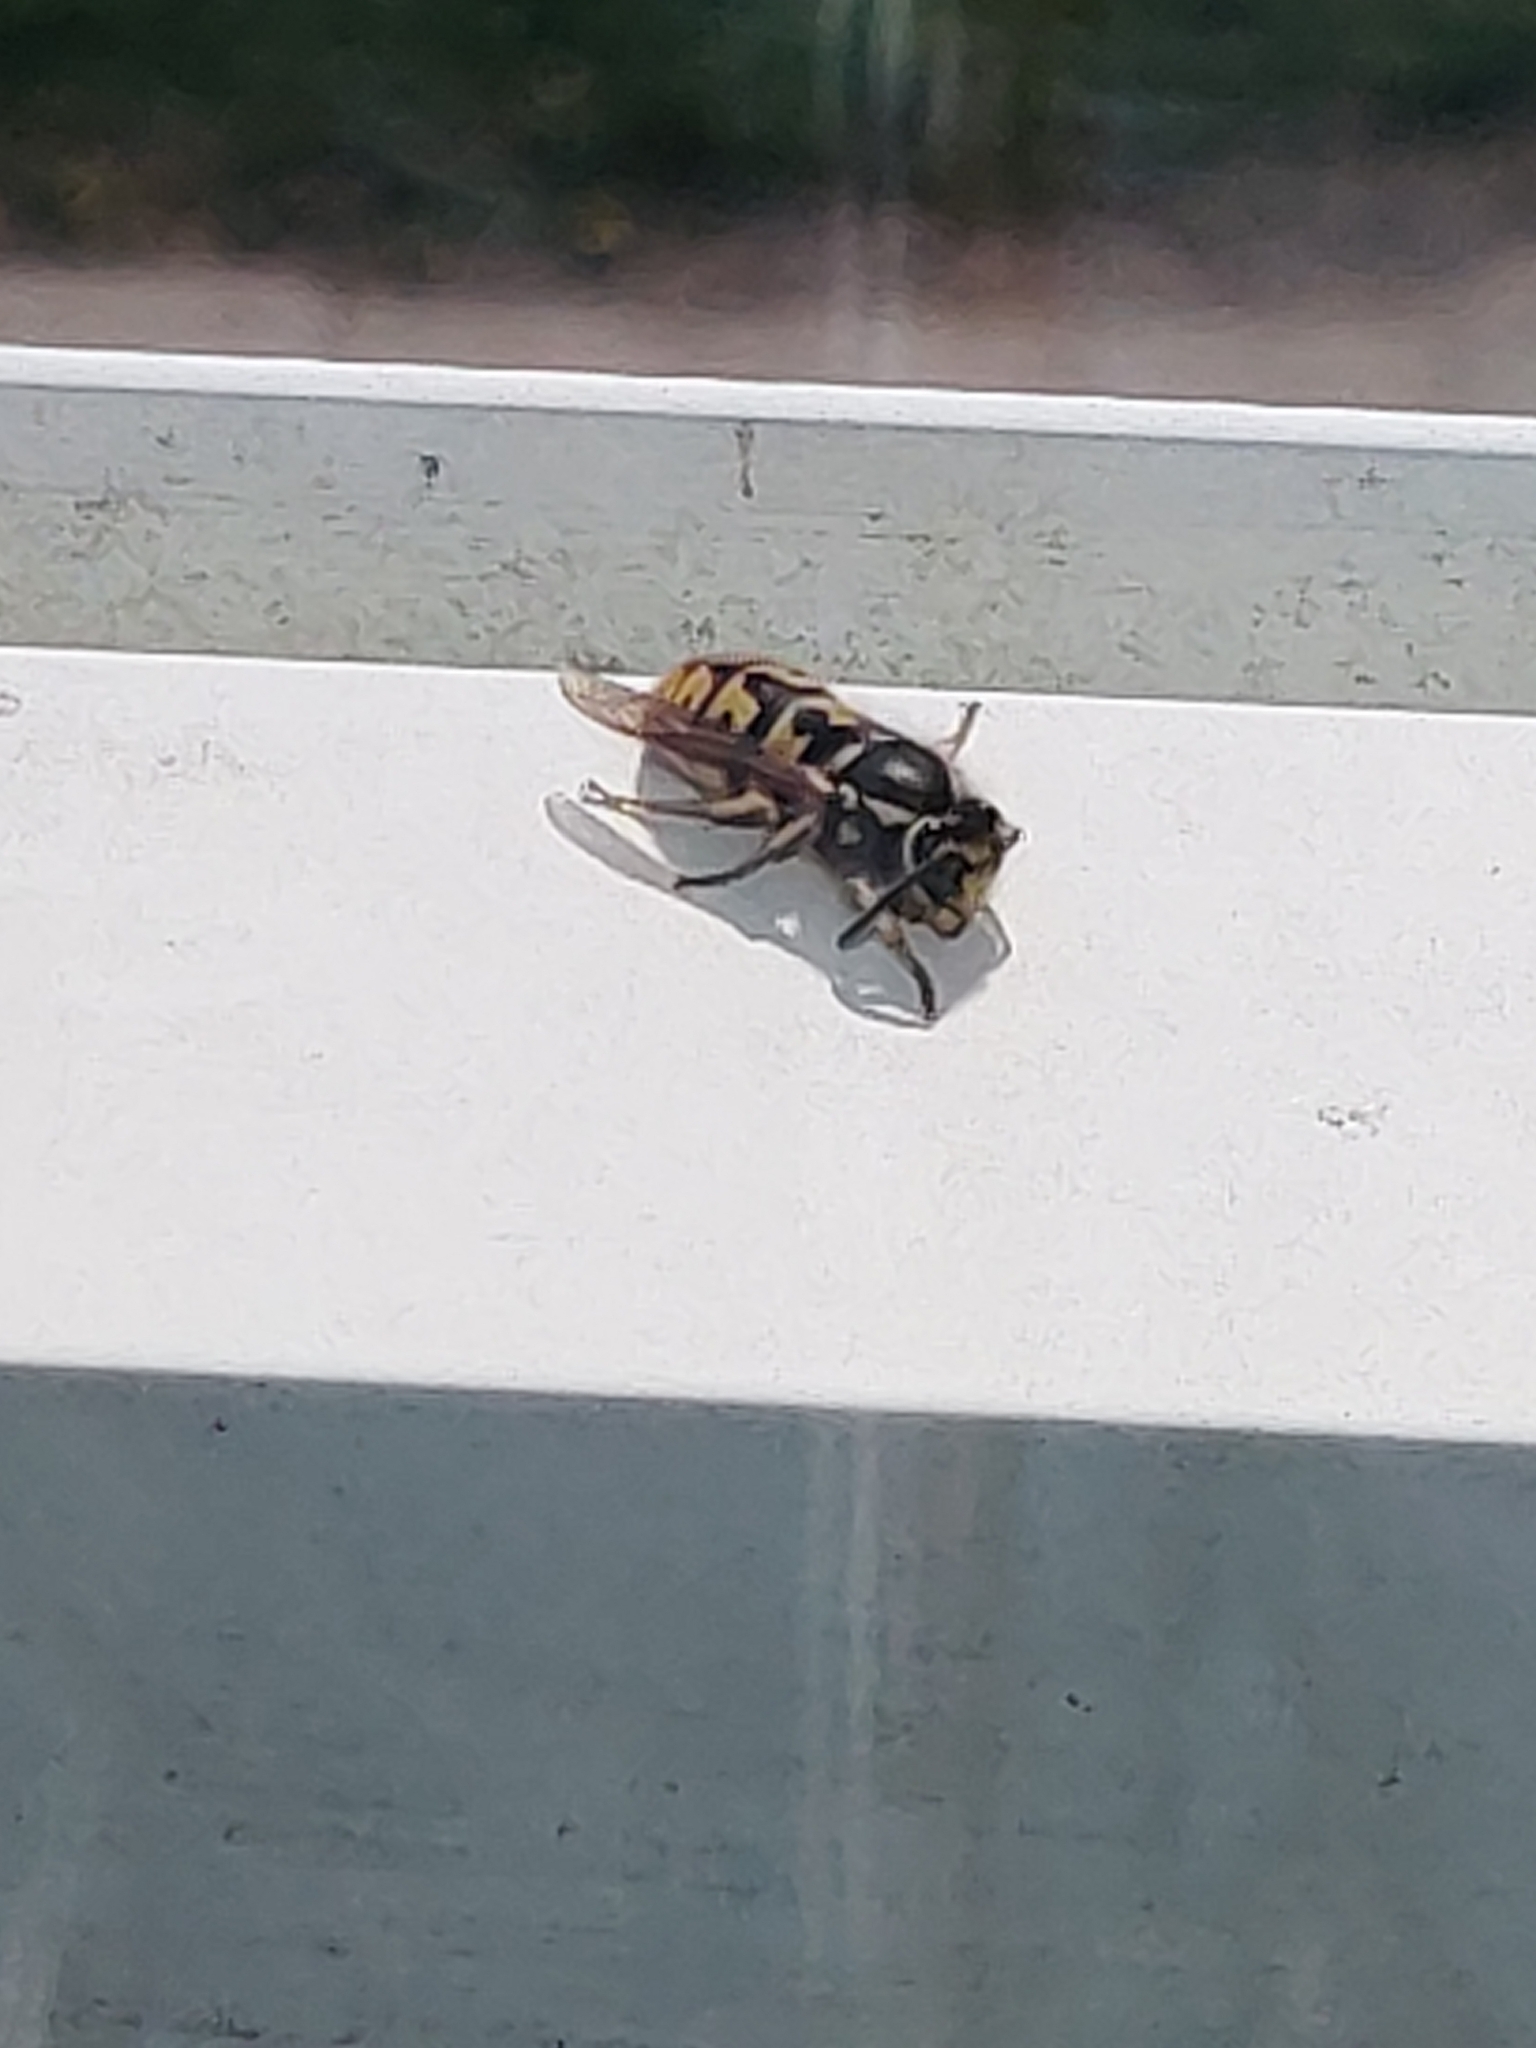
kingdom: Animalia
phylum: Arthropoda
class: Insecta
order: Hymenoptera
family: Vespidae
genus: Vespula
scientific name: Vespula germanica
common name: German wasp
